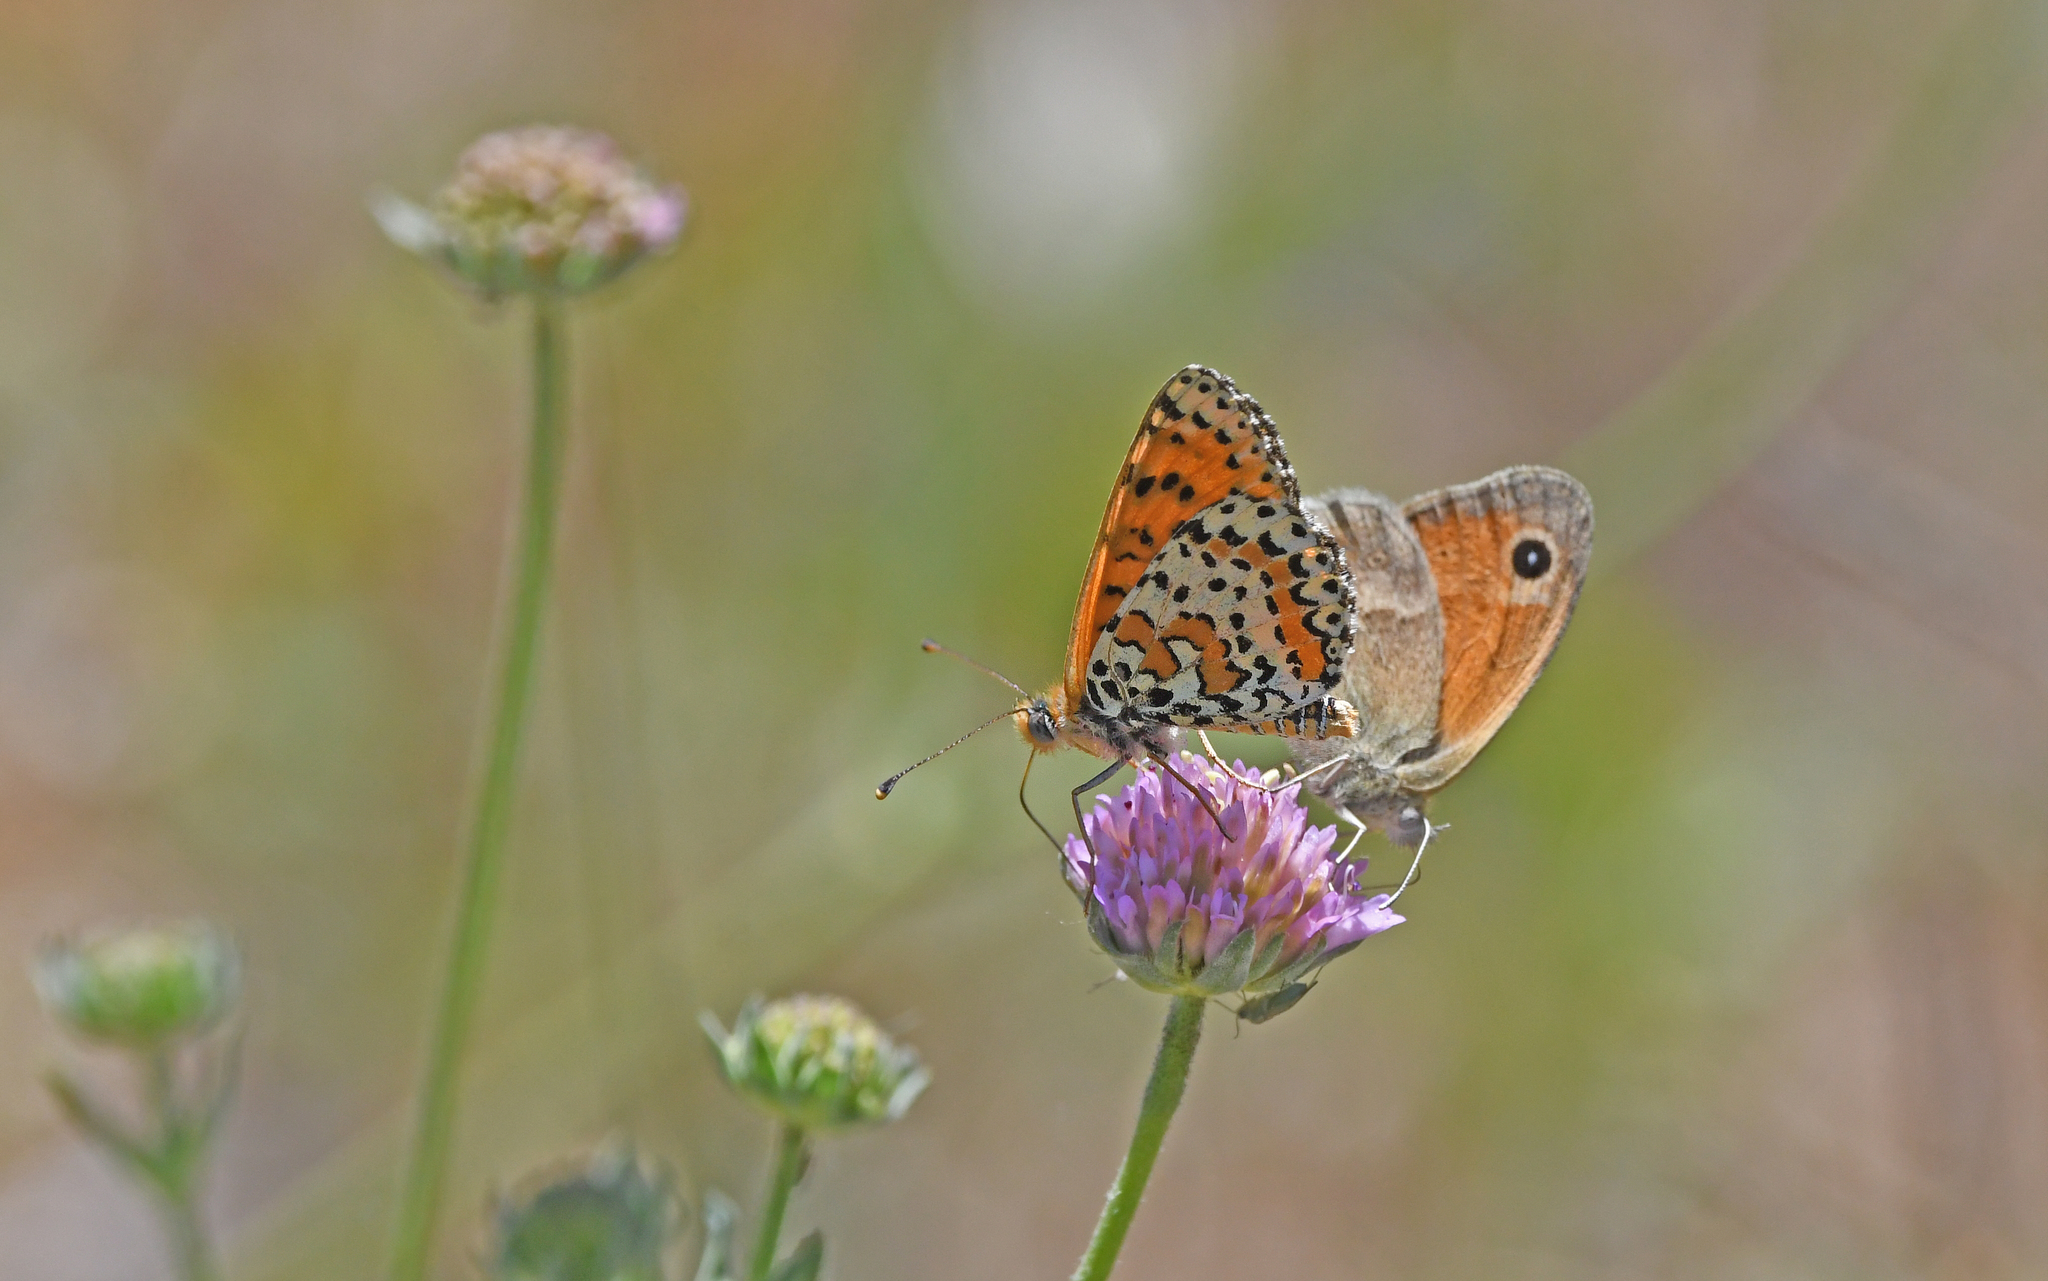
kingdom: Animalia
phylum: Arthropoda
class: Insecta
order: Lepidoptera
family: Nymphalidae
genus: Melitaea
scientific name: Melitaea didyma
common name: Spotted fritillary
